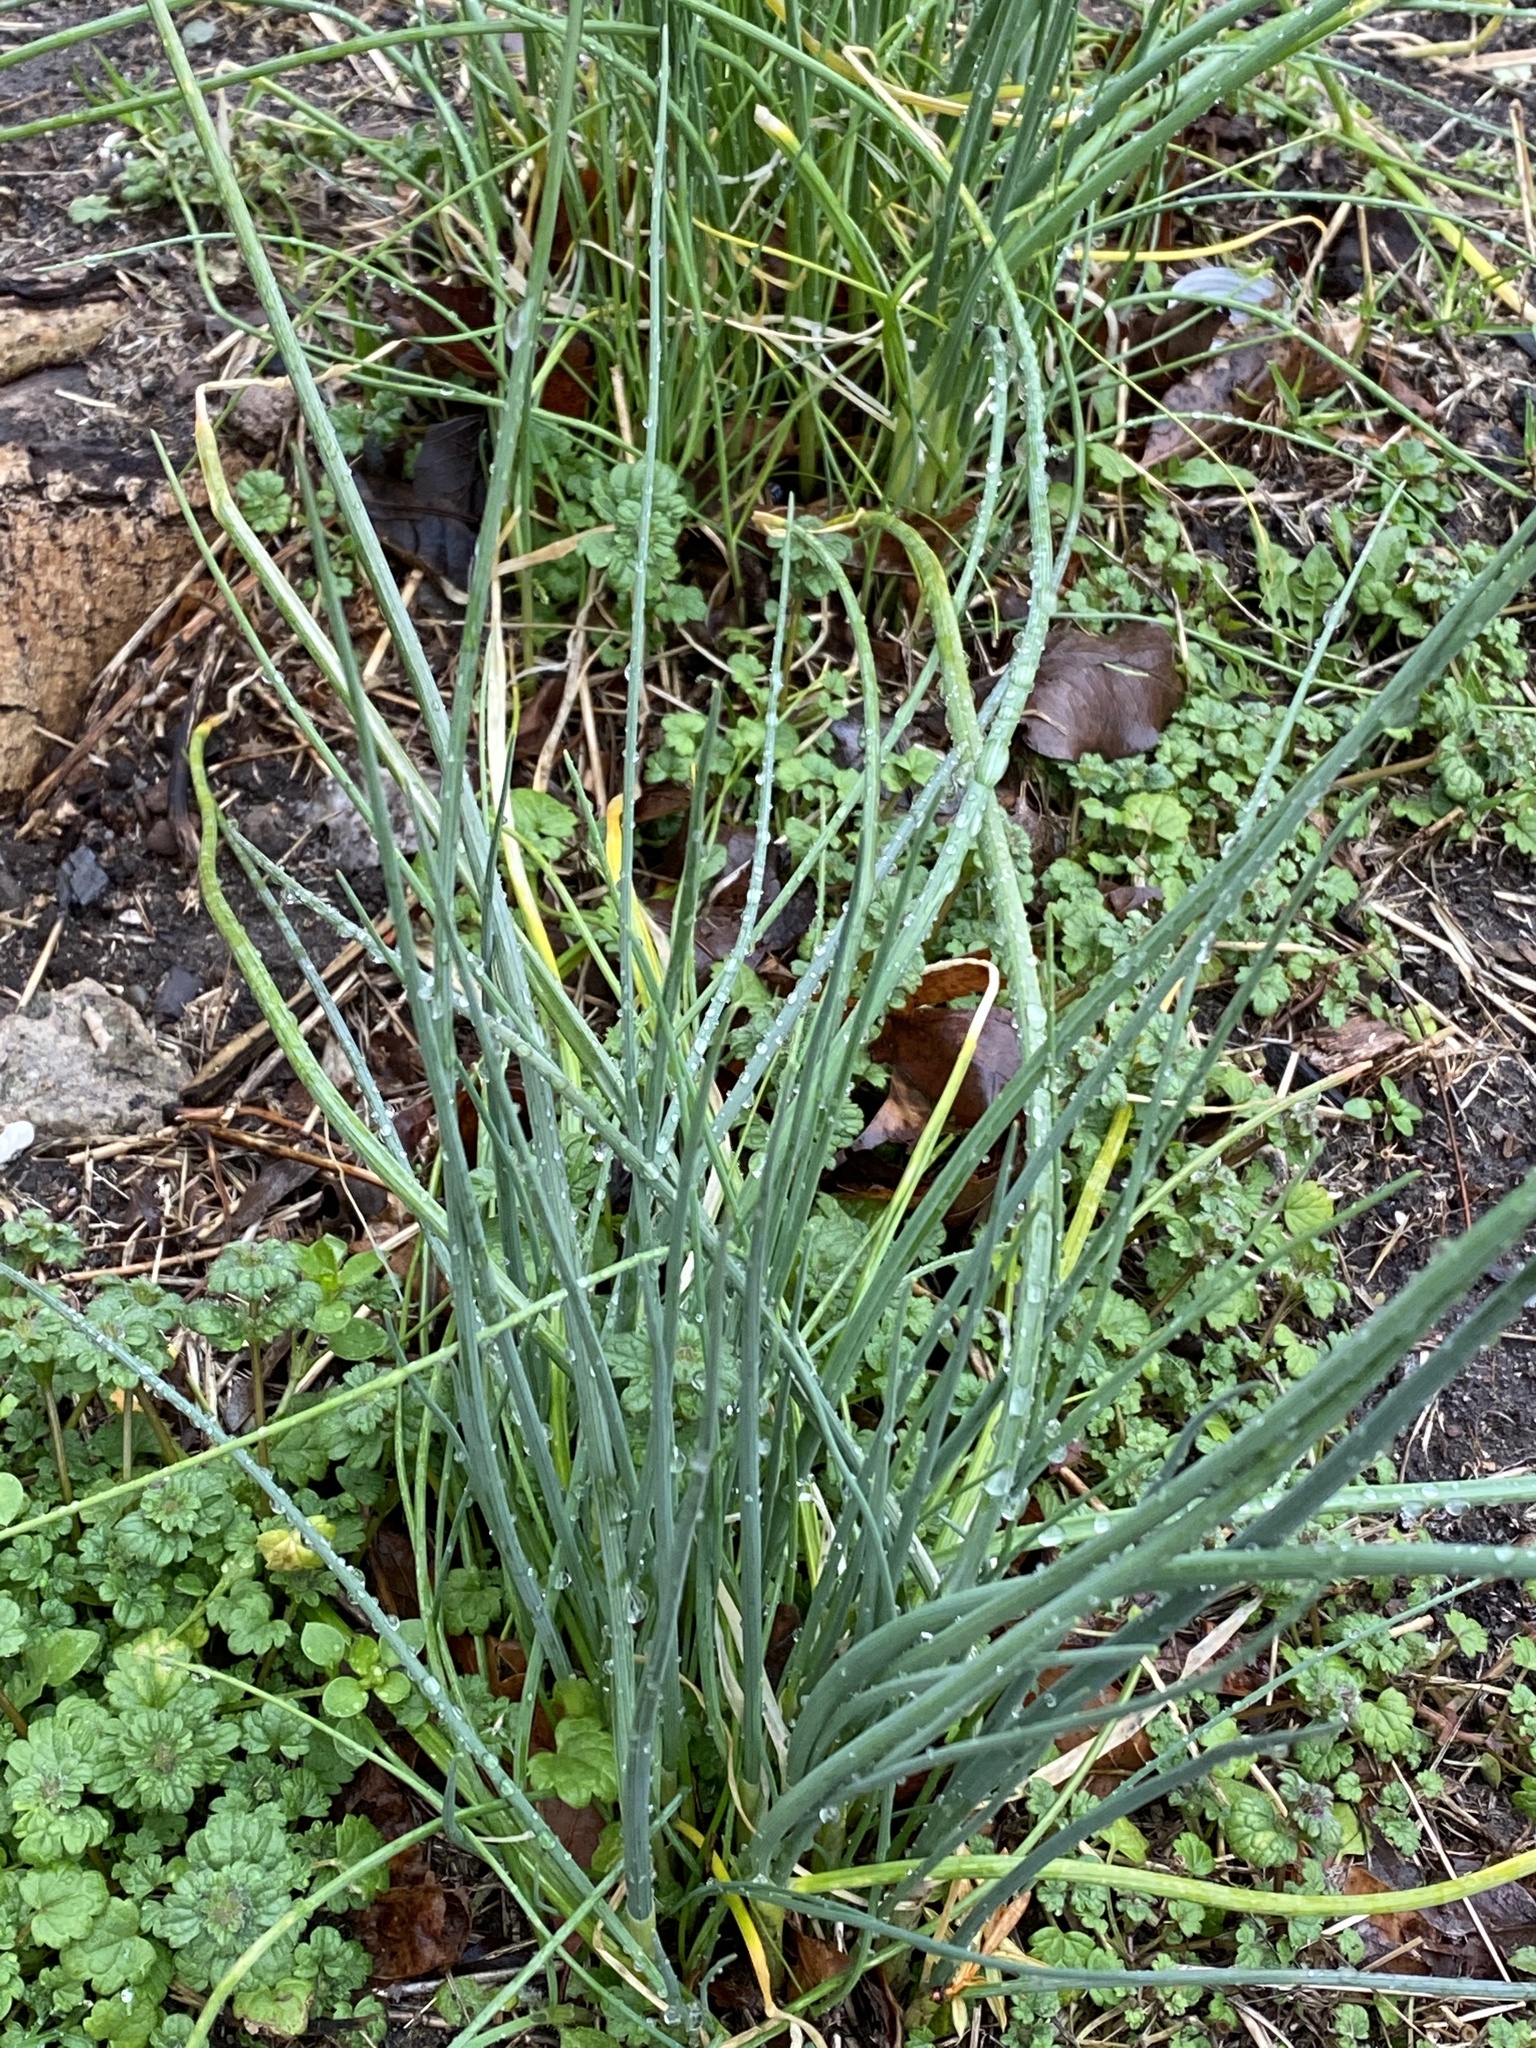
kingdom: Plantae
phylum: Tracheophyta
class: Liliopsida
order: Asparagales
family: Amaryllidaceae
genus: Allium
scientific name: Allium vineale
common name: Crow garlic
